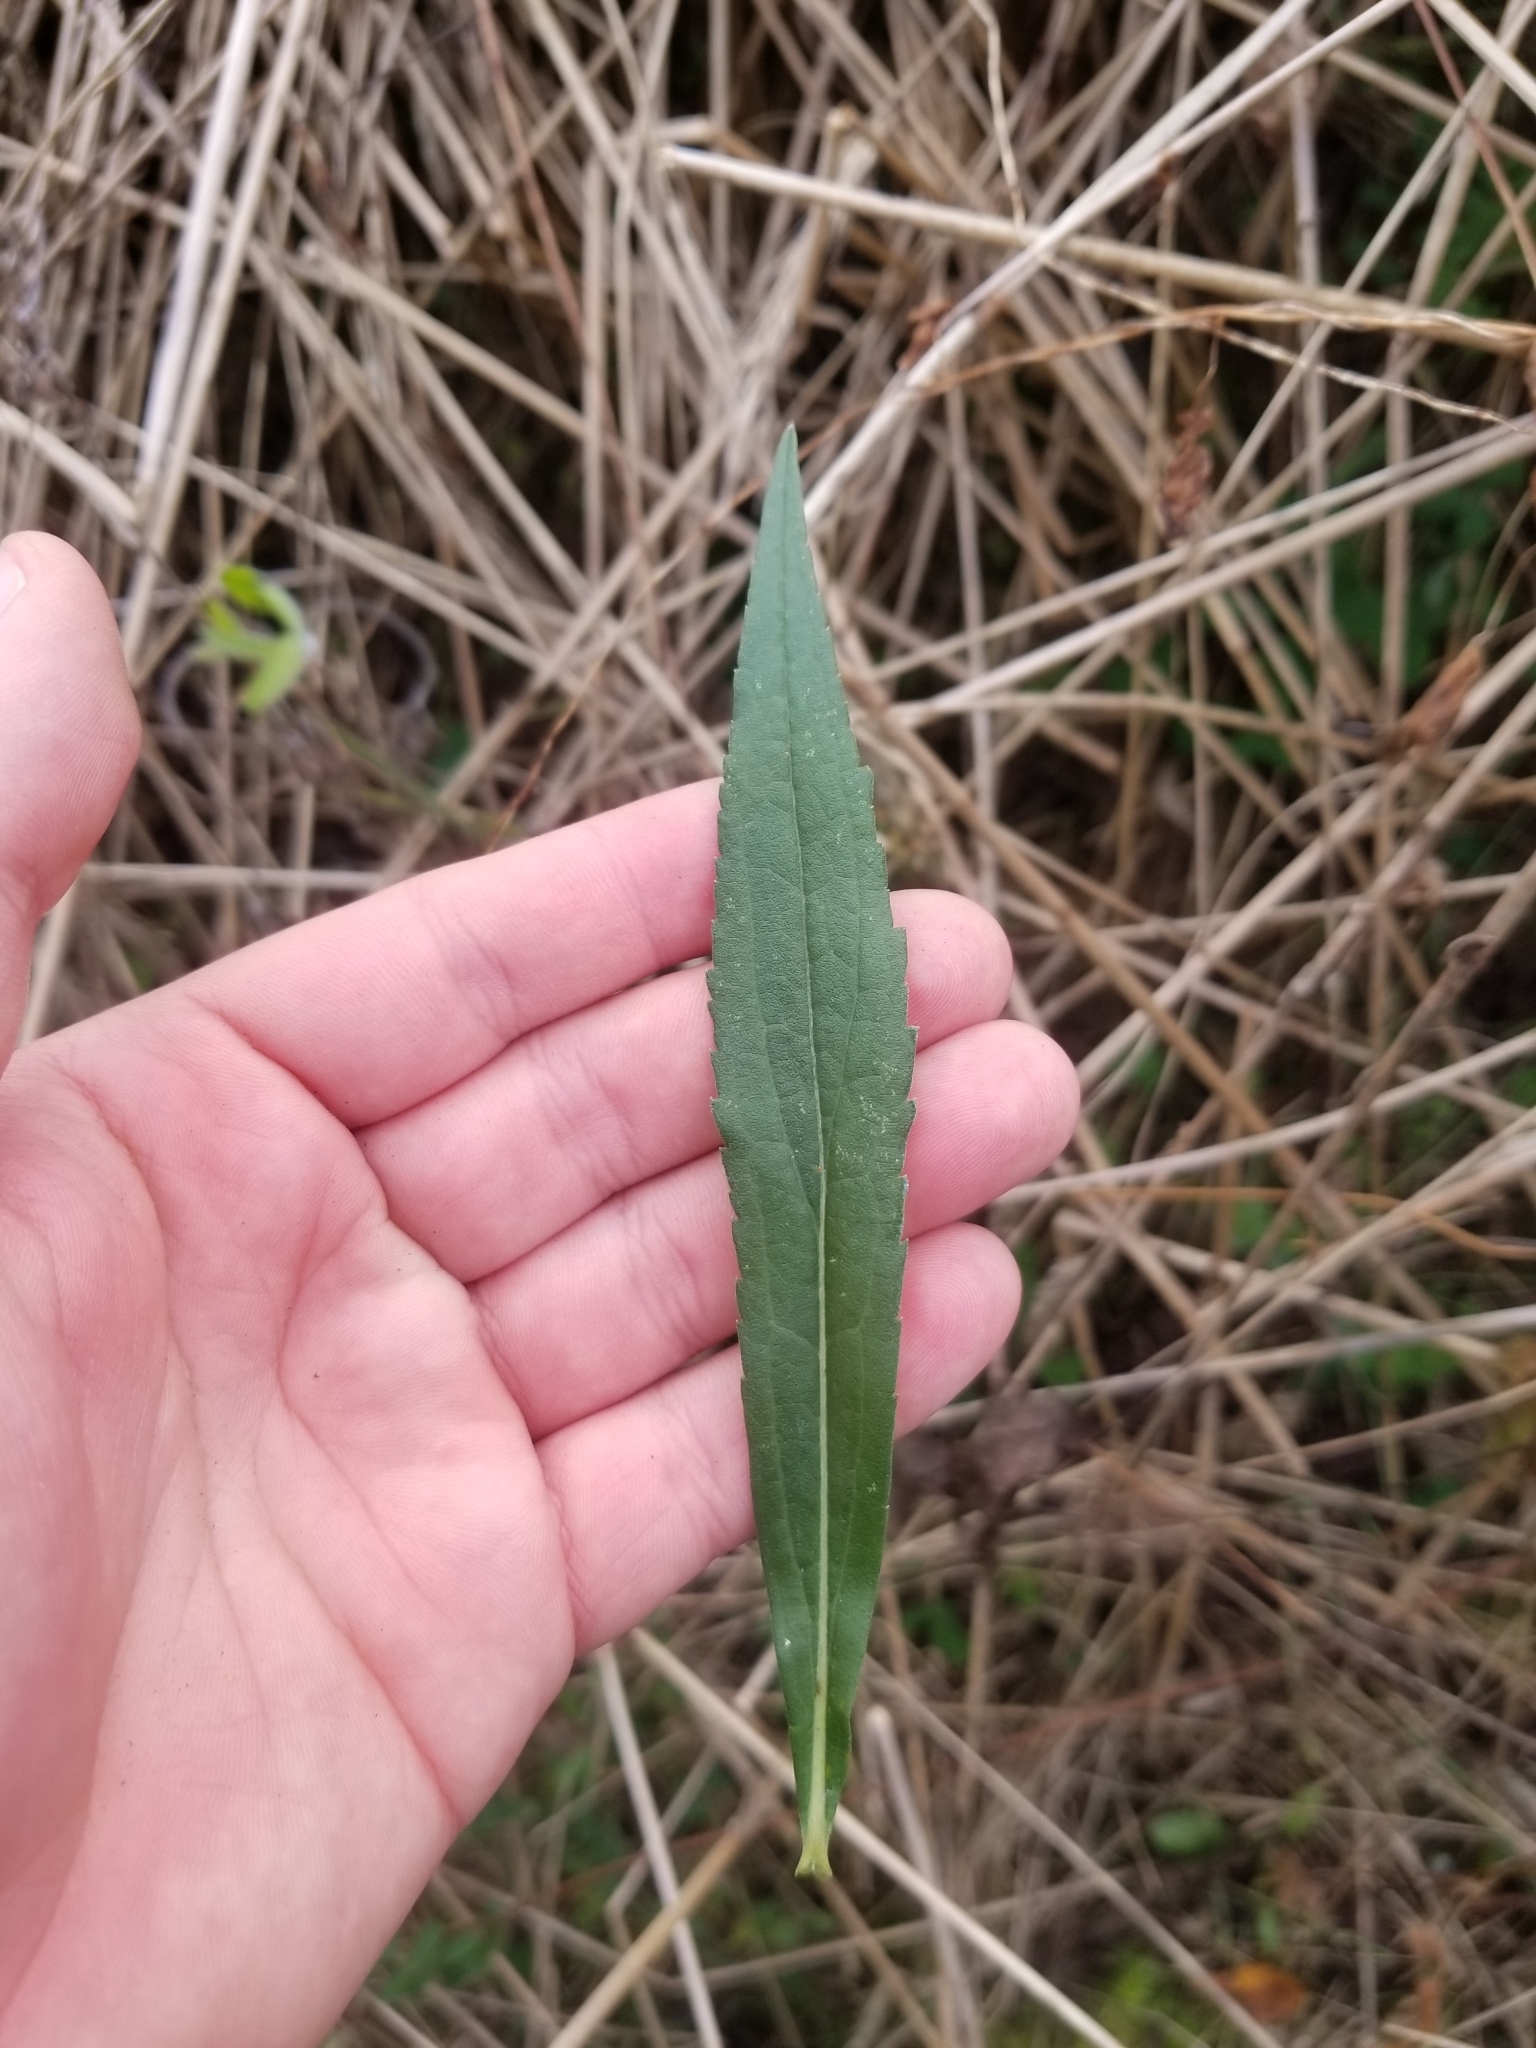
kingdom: Plantae
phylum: Tracheophyta
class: Magnoliopsida
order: Asterales
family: Asteraceae
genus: Solidago
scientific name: Solidago altissima
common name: Late goldenrod
